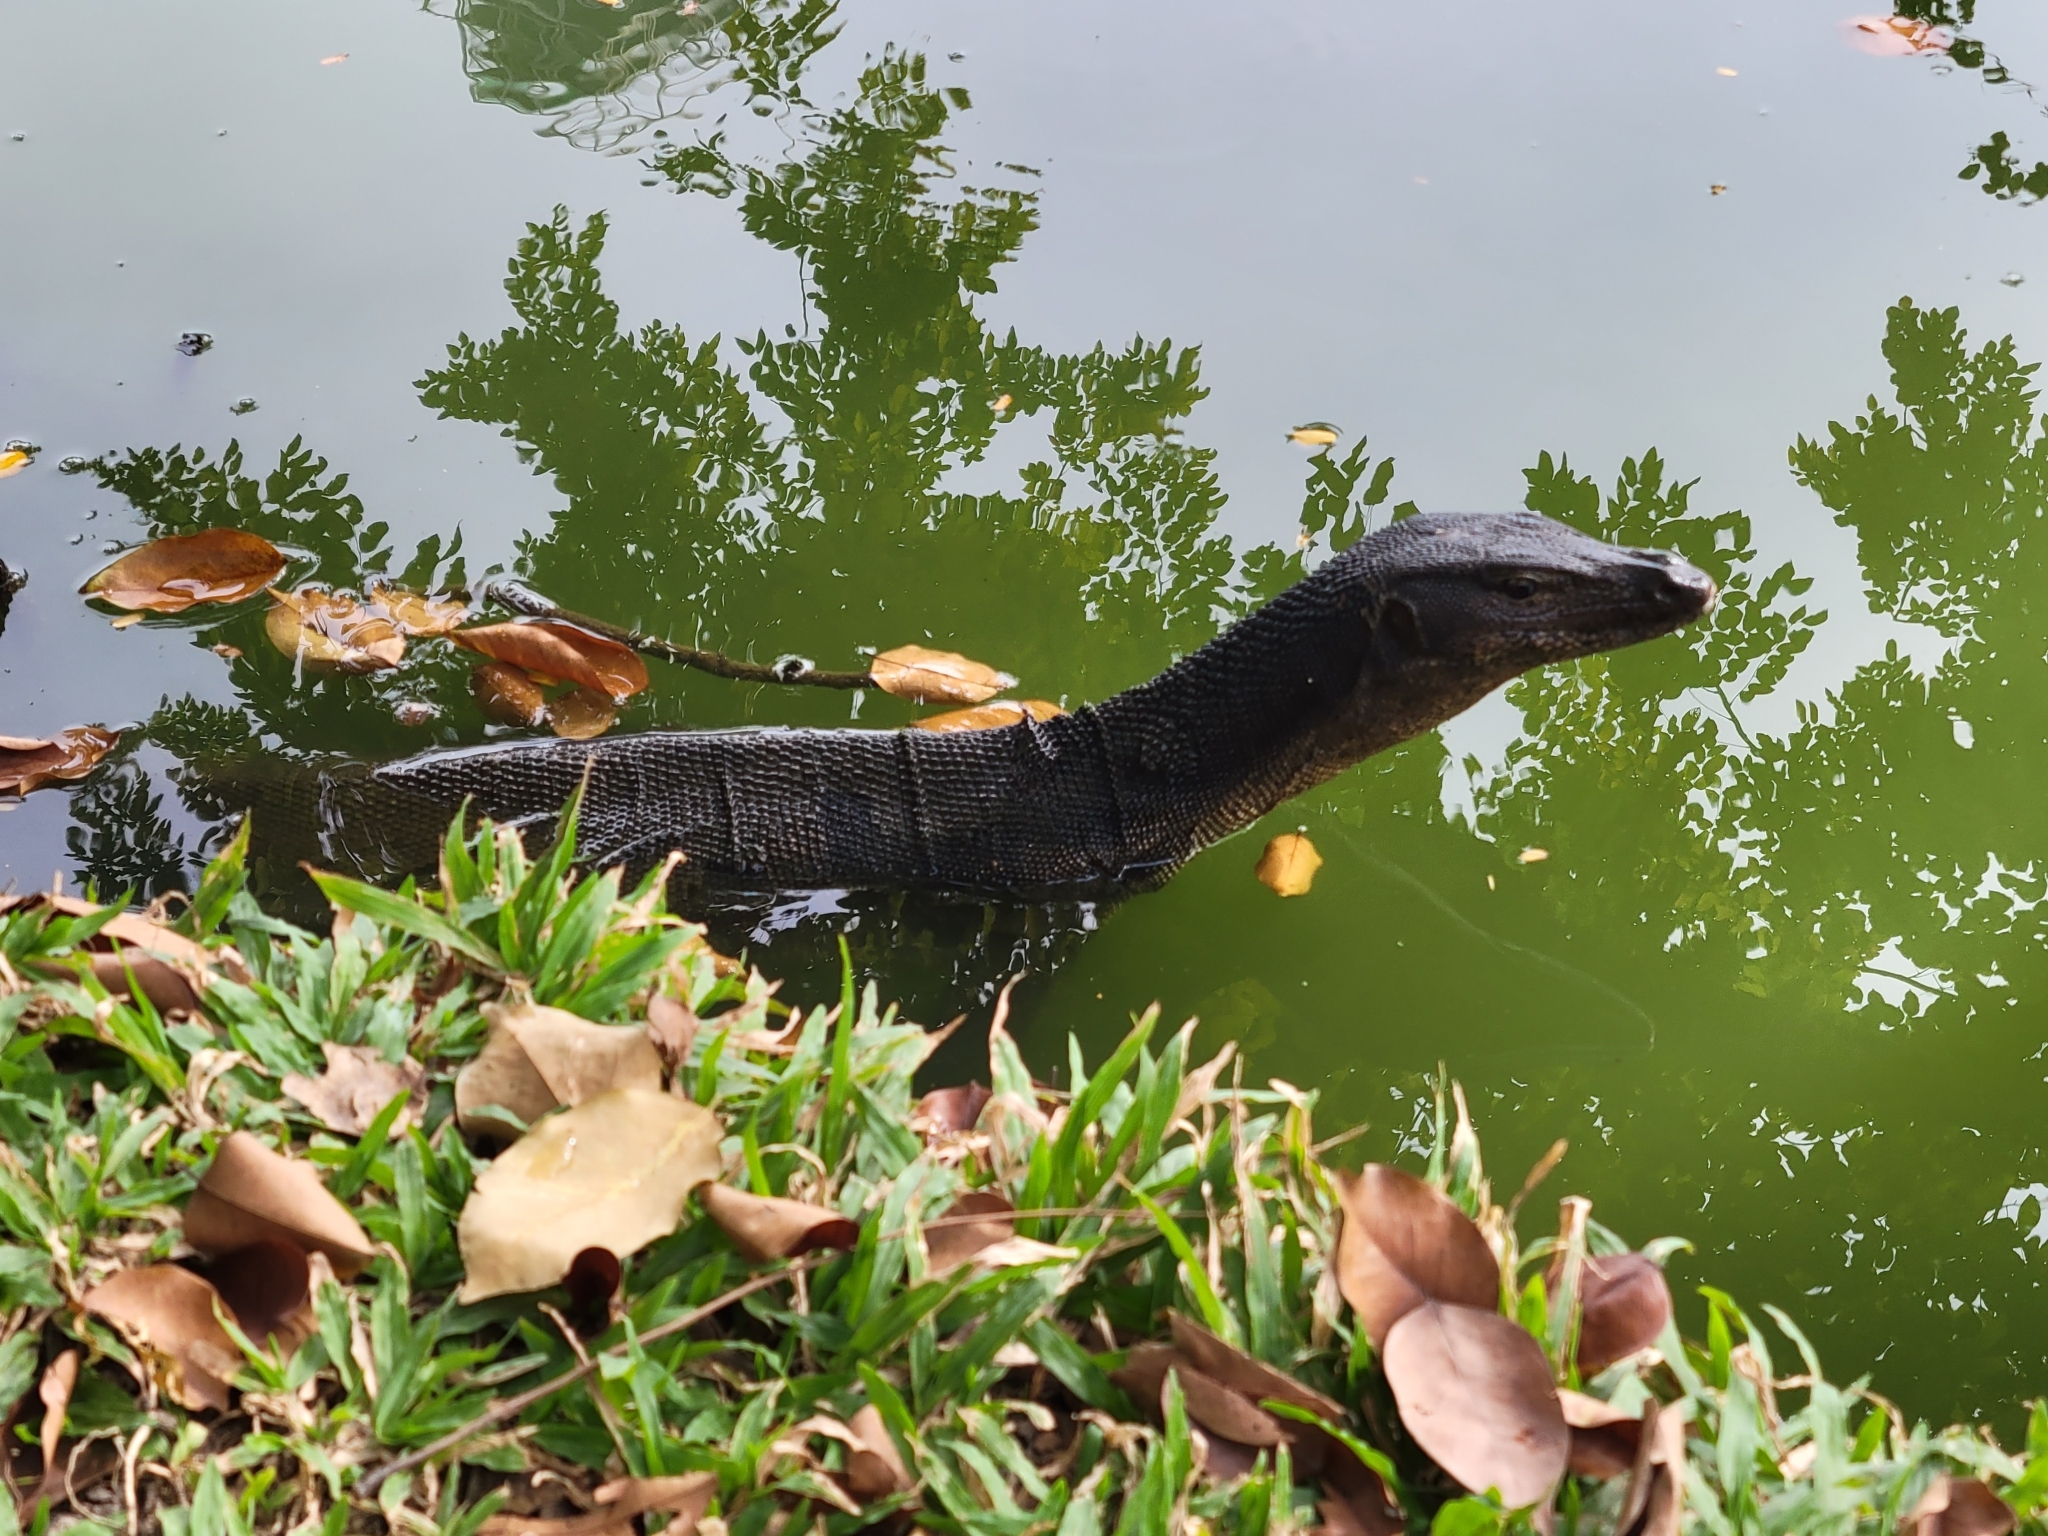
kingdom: Animalia
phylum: Chordata
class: Squamata
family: Varanidae
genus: Varanus
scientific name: Varanus salvator
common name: Common water monitor
